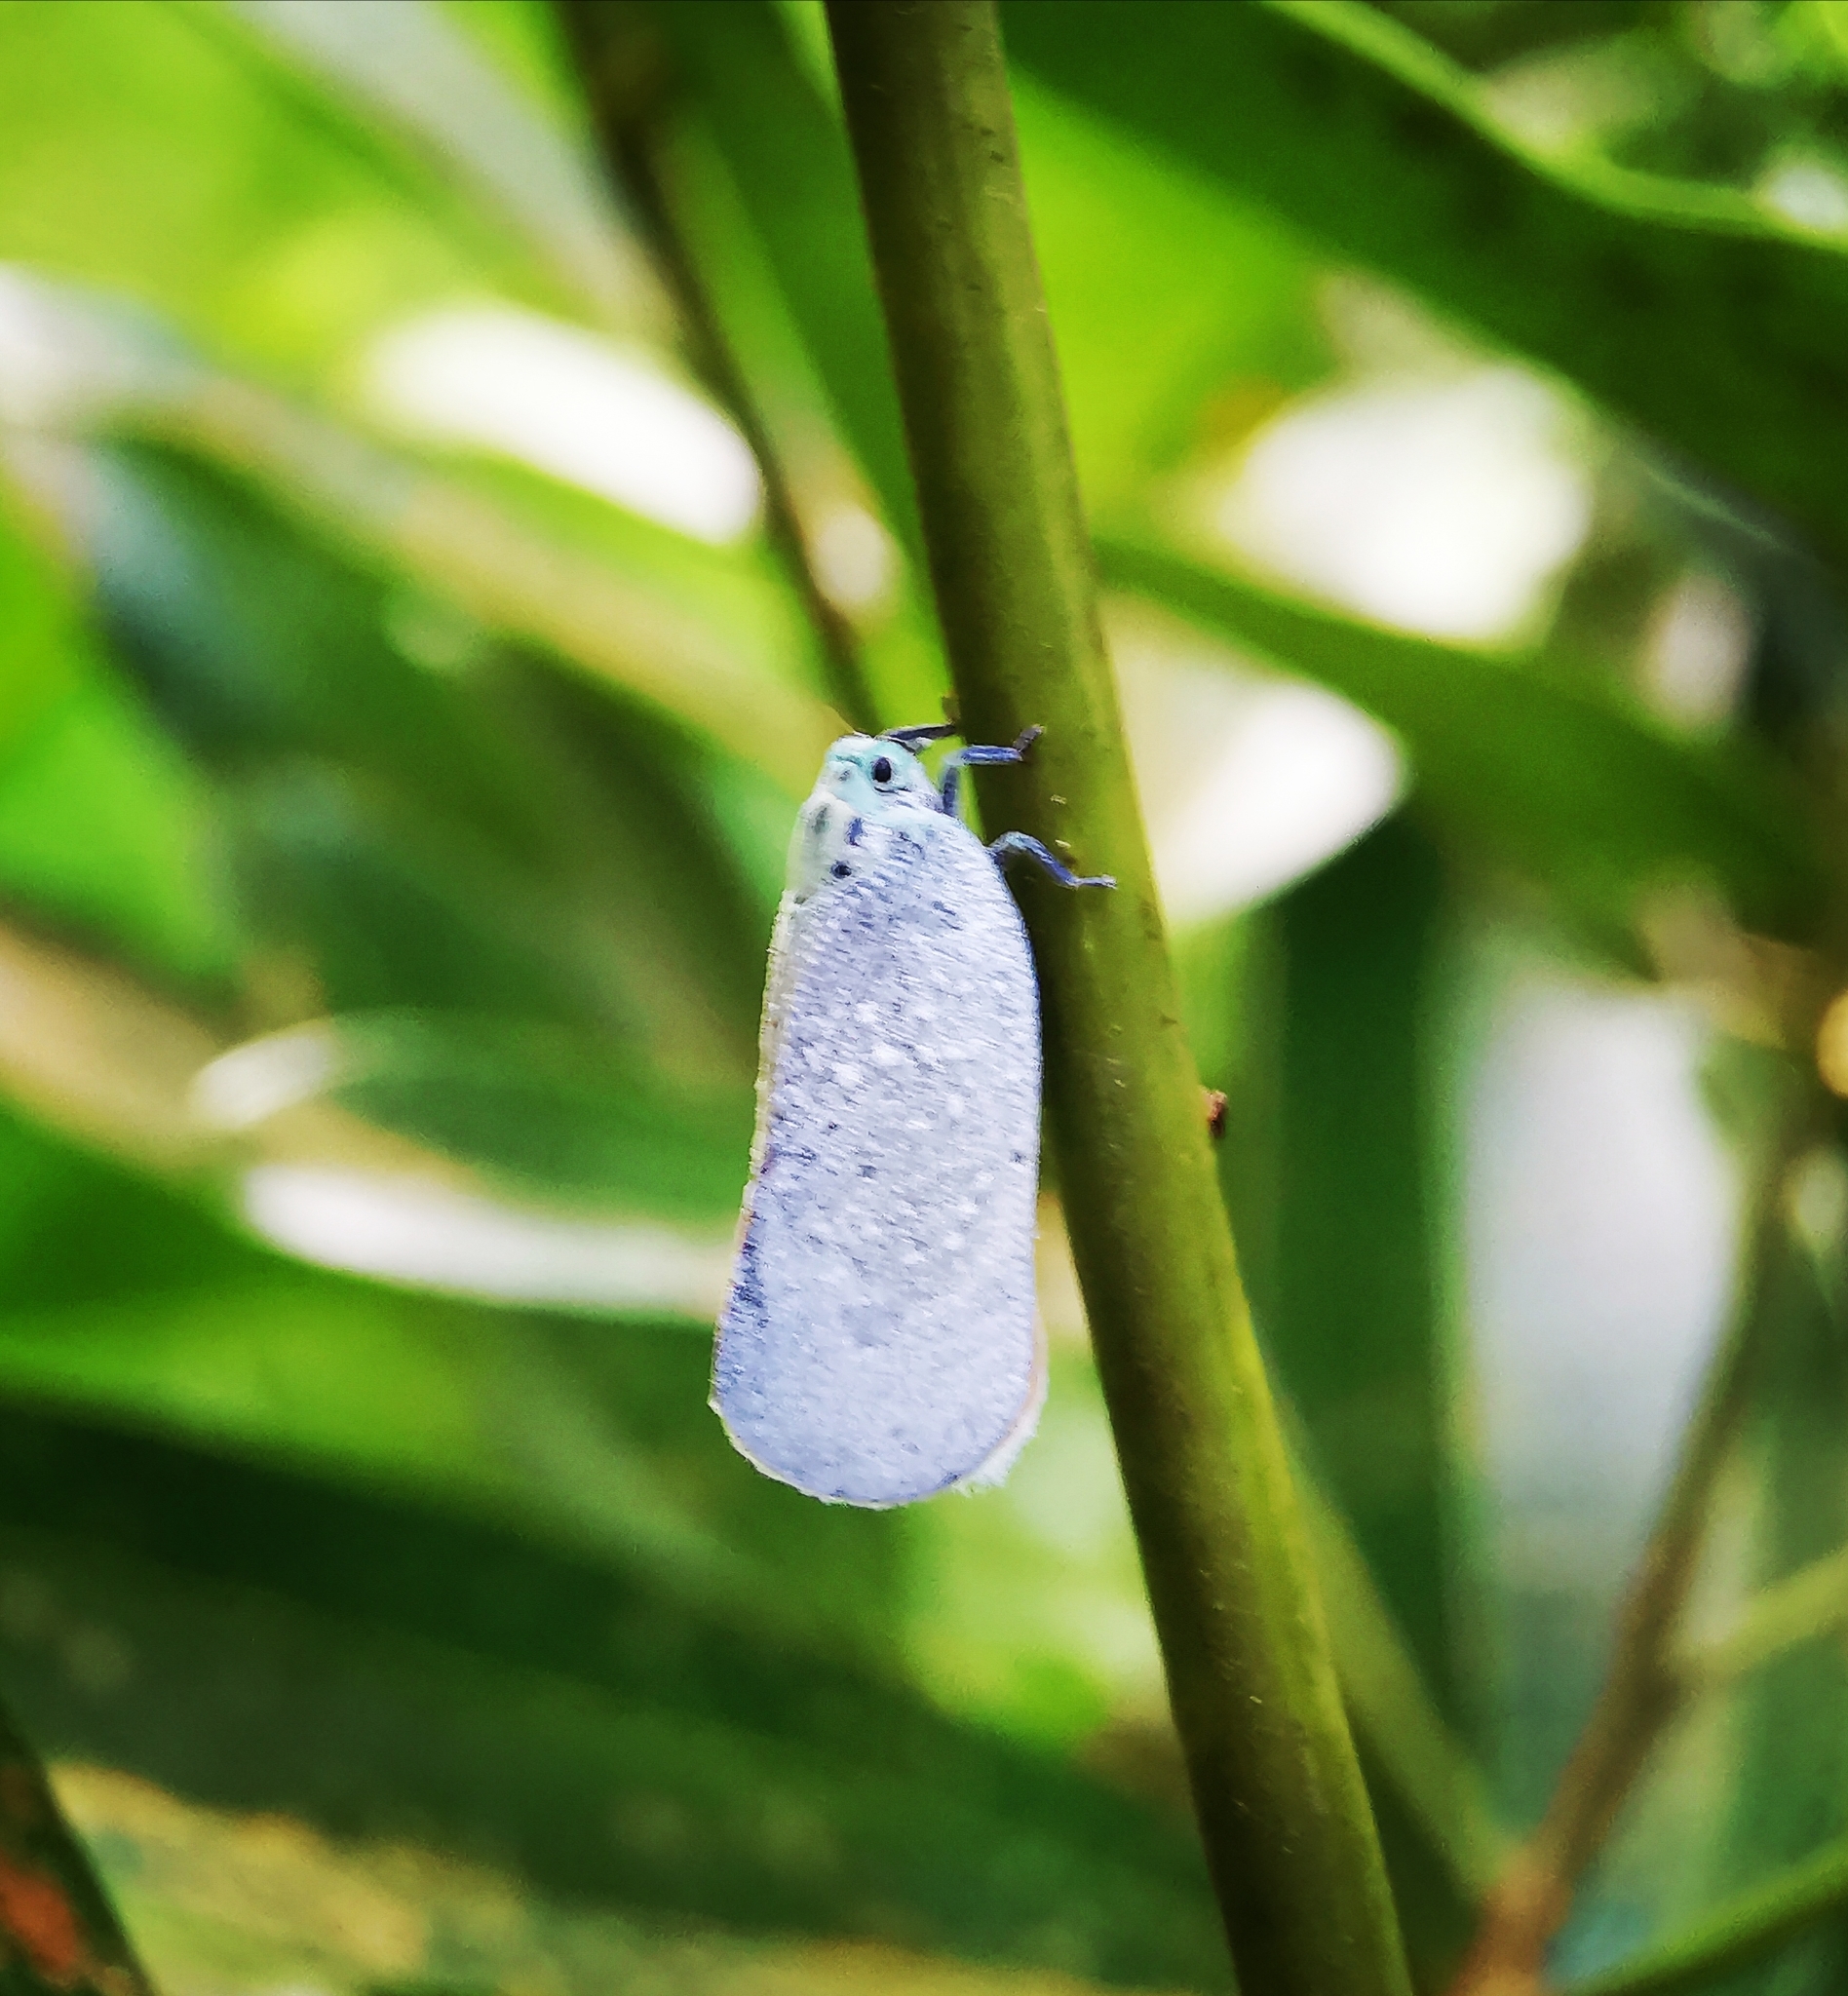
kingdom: Animalia
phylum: Arthropoda
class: Insecta
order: Hemiptera
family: Flatidae
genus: Bythopsyrna
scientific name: Bythopsyrna tineoides
